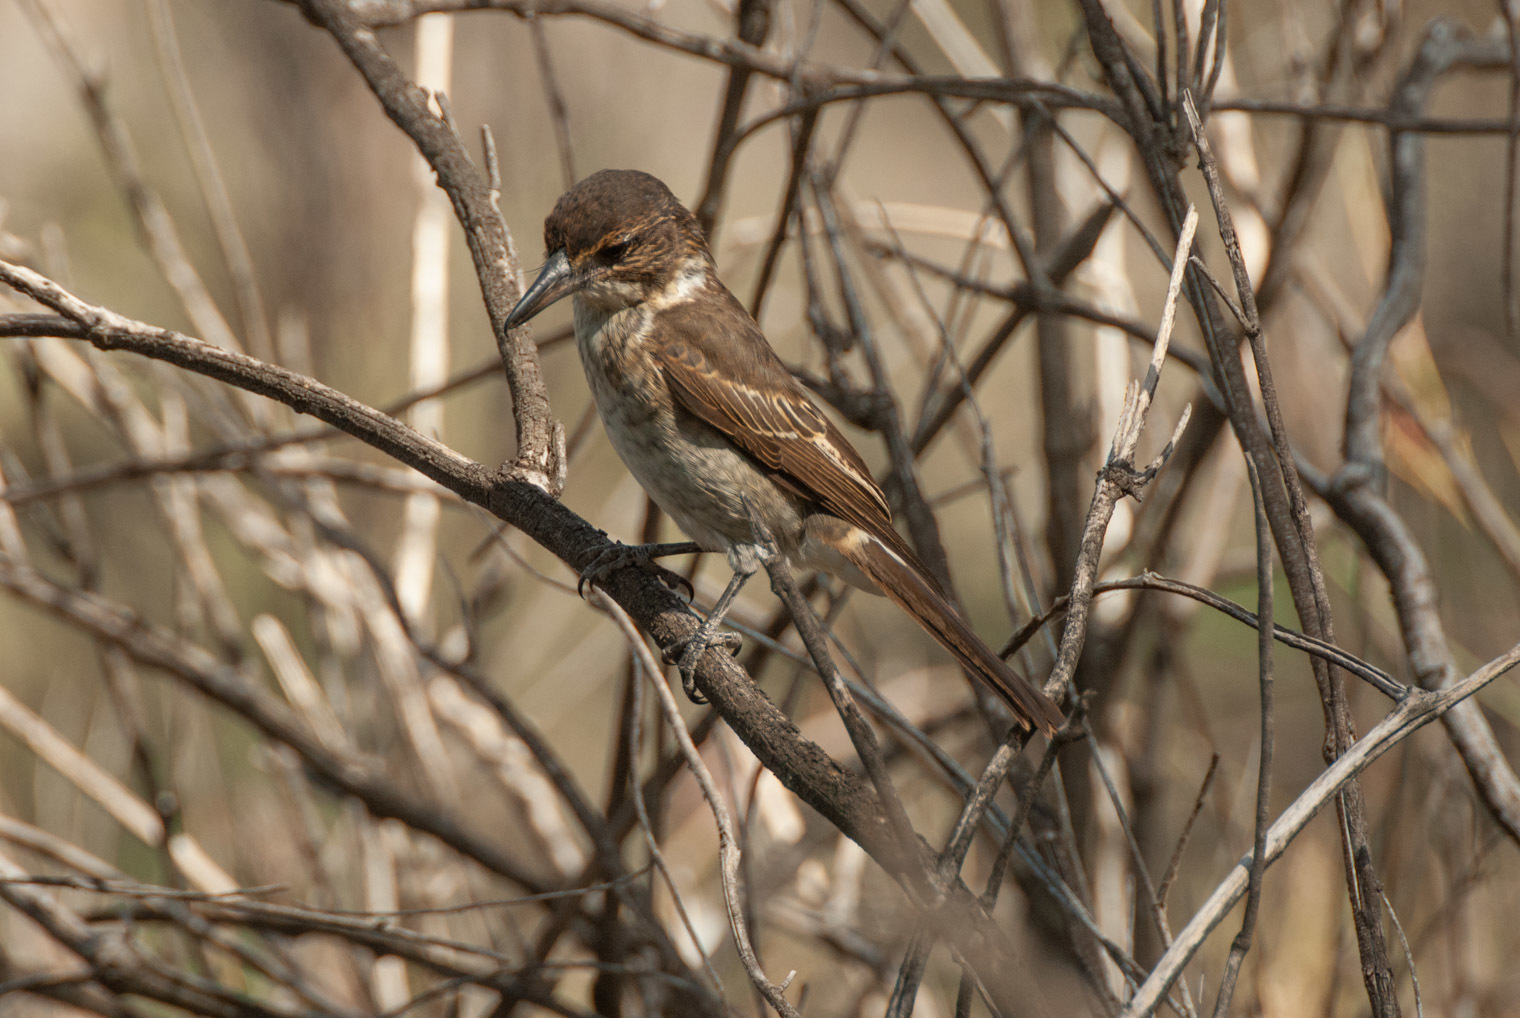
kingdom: Animalia
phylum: Chordata
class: Aves
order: Passeriformes
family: Cracticidae
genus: Cracticus
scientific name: Cracticus torquatus
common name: Grey butcherbird
